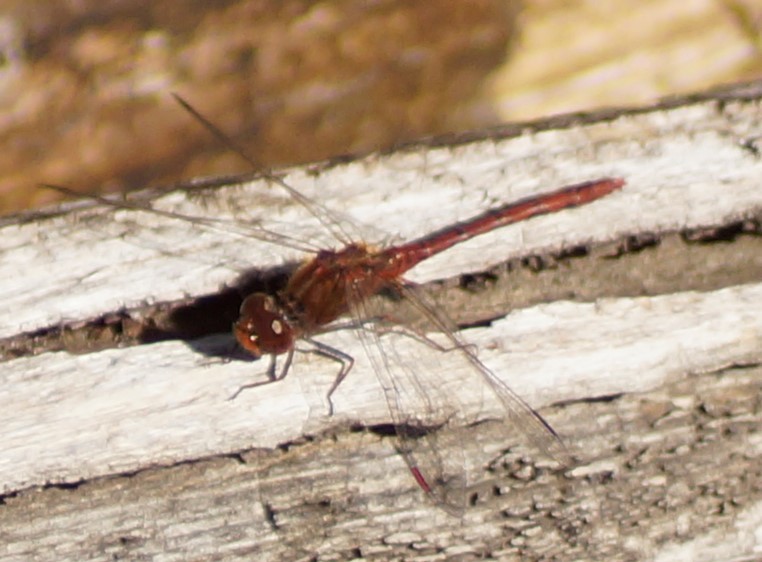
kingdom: Animalia
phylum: Arthropoda
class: Insecta
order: Odonata
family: Libellulidae
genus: Diplacodes
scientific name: Diplacodes bipunctata
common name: Red percher dragonfly
